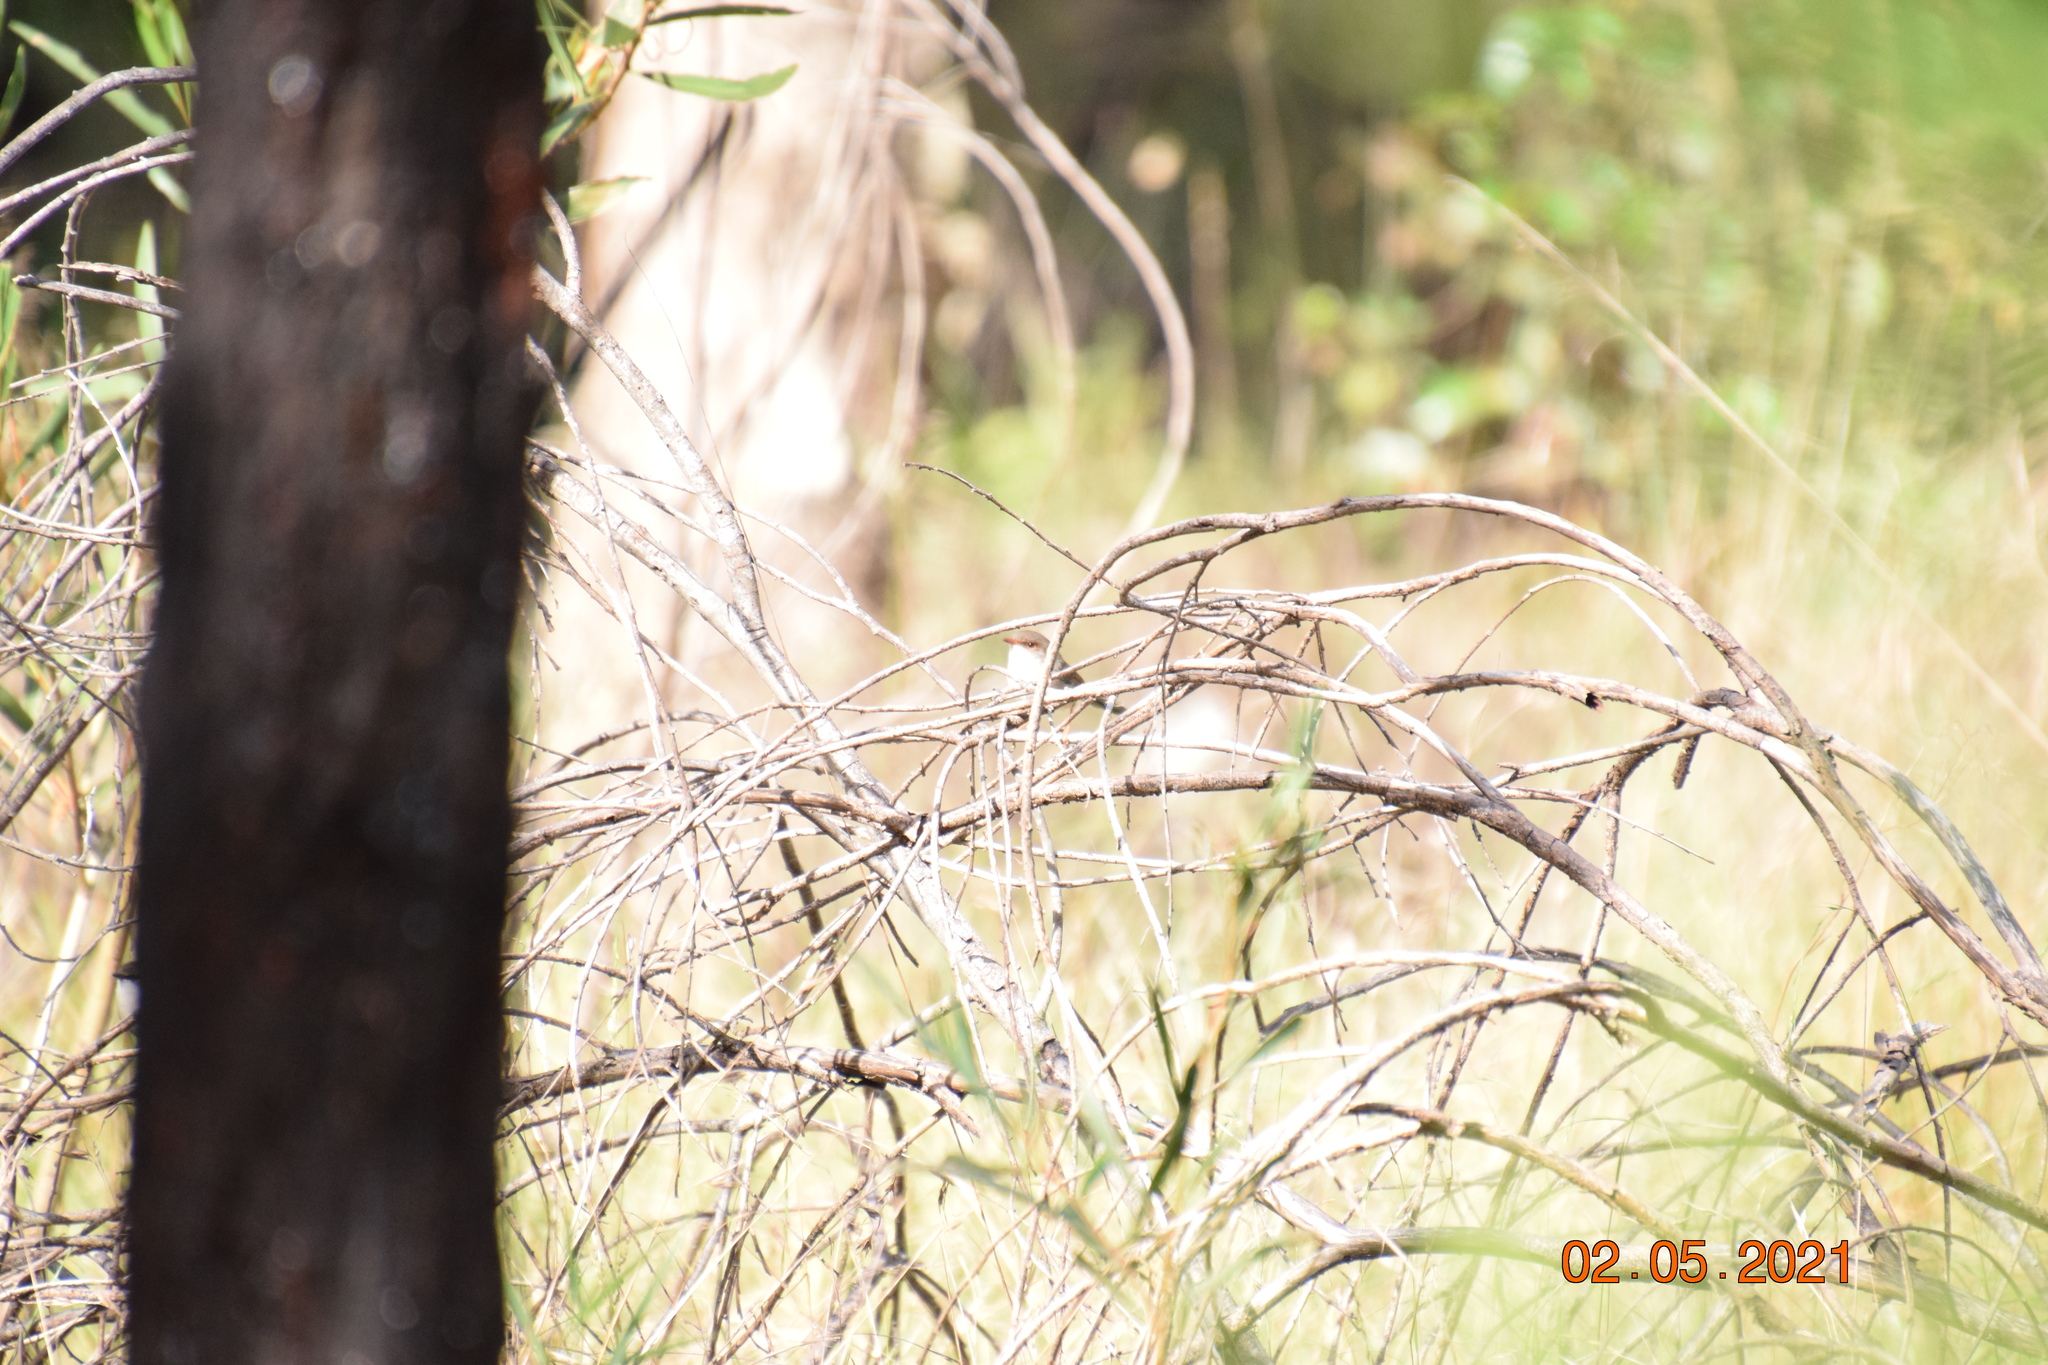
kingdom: Animalia
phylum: Chordata
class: Aves
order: Passeriformes
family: Maluridae
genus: Malurus
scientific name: Malurus cyaneus
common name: Superb fairywren
